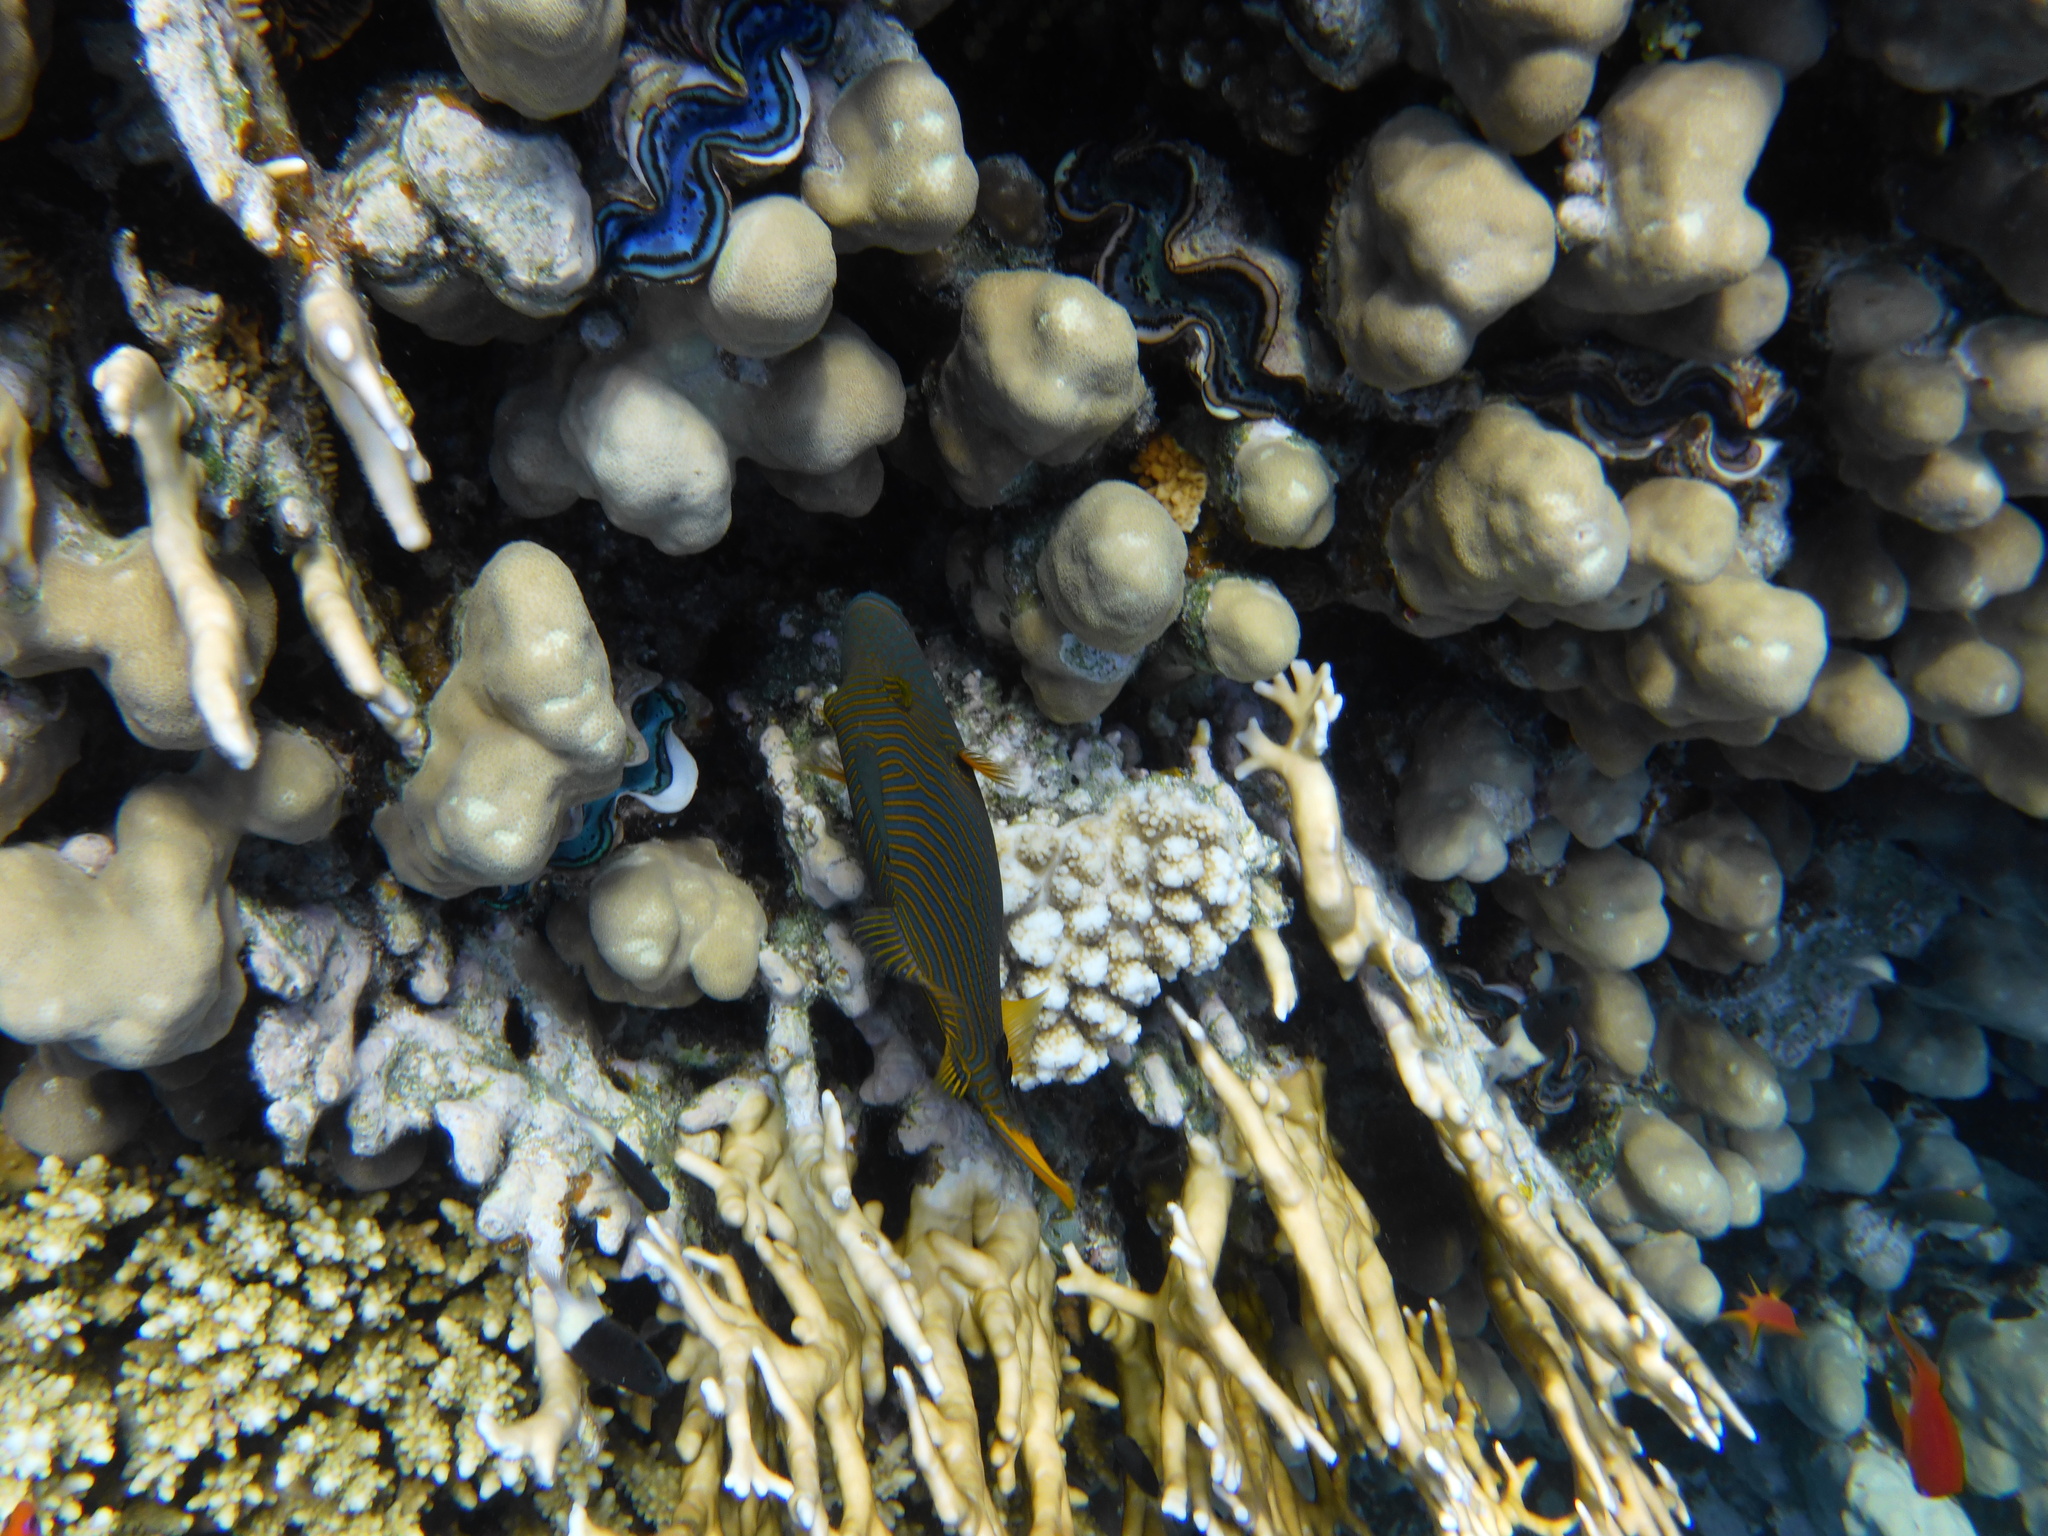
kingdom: Animalia
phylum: Chordata
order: Tetraodontiformes
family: Balistidae
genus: Balistapus
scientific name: Balistapus undulatus
